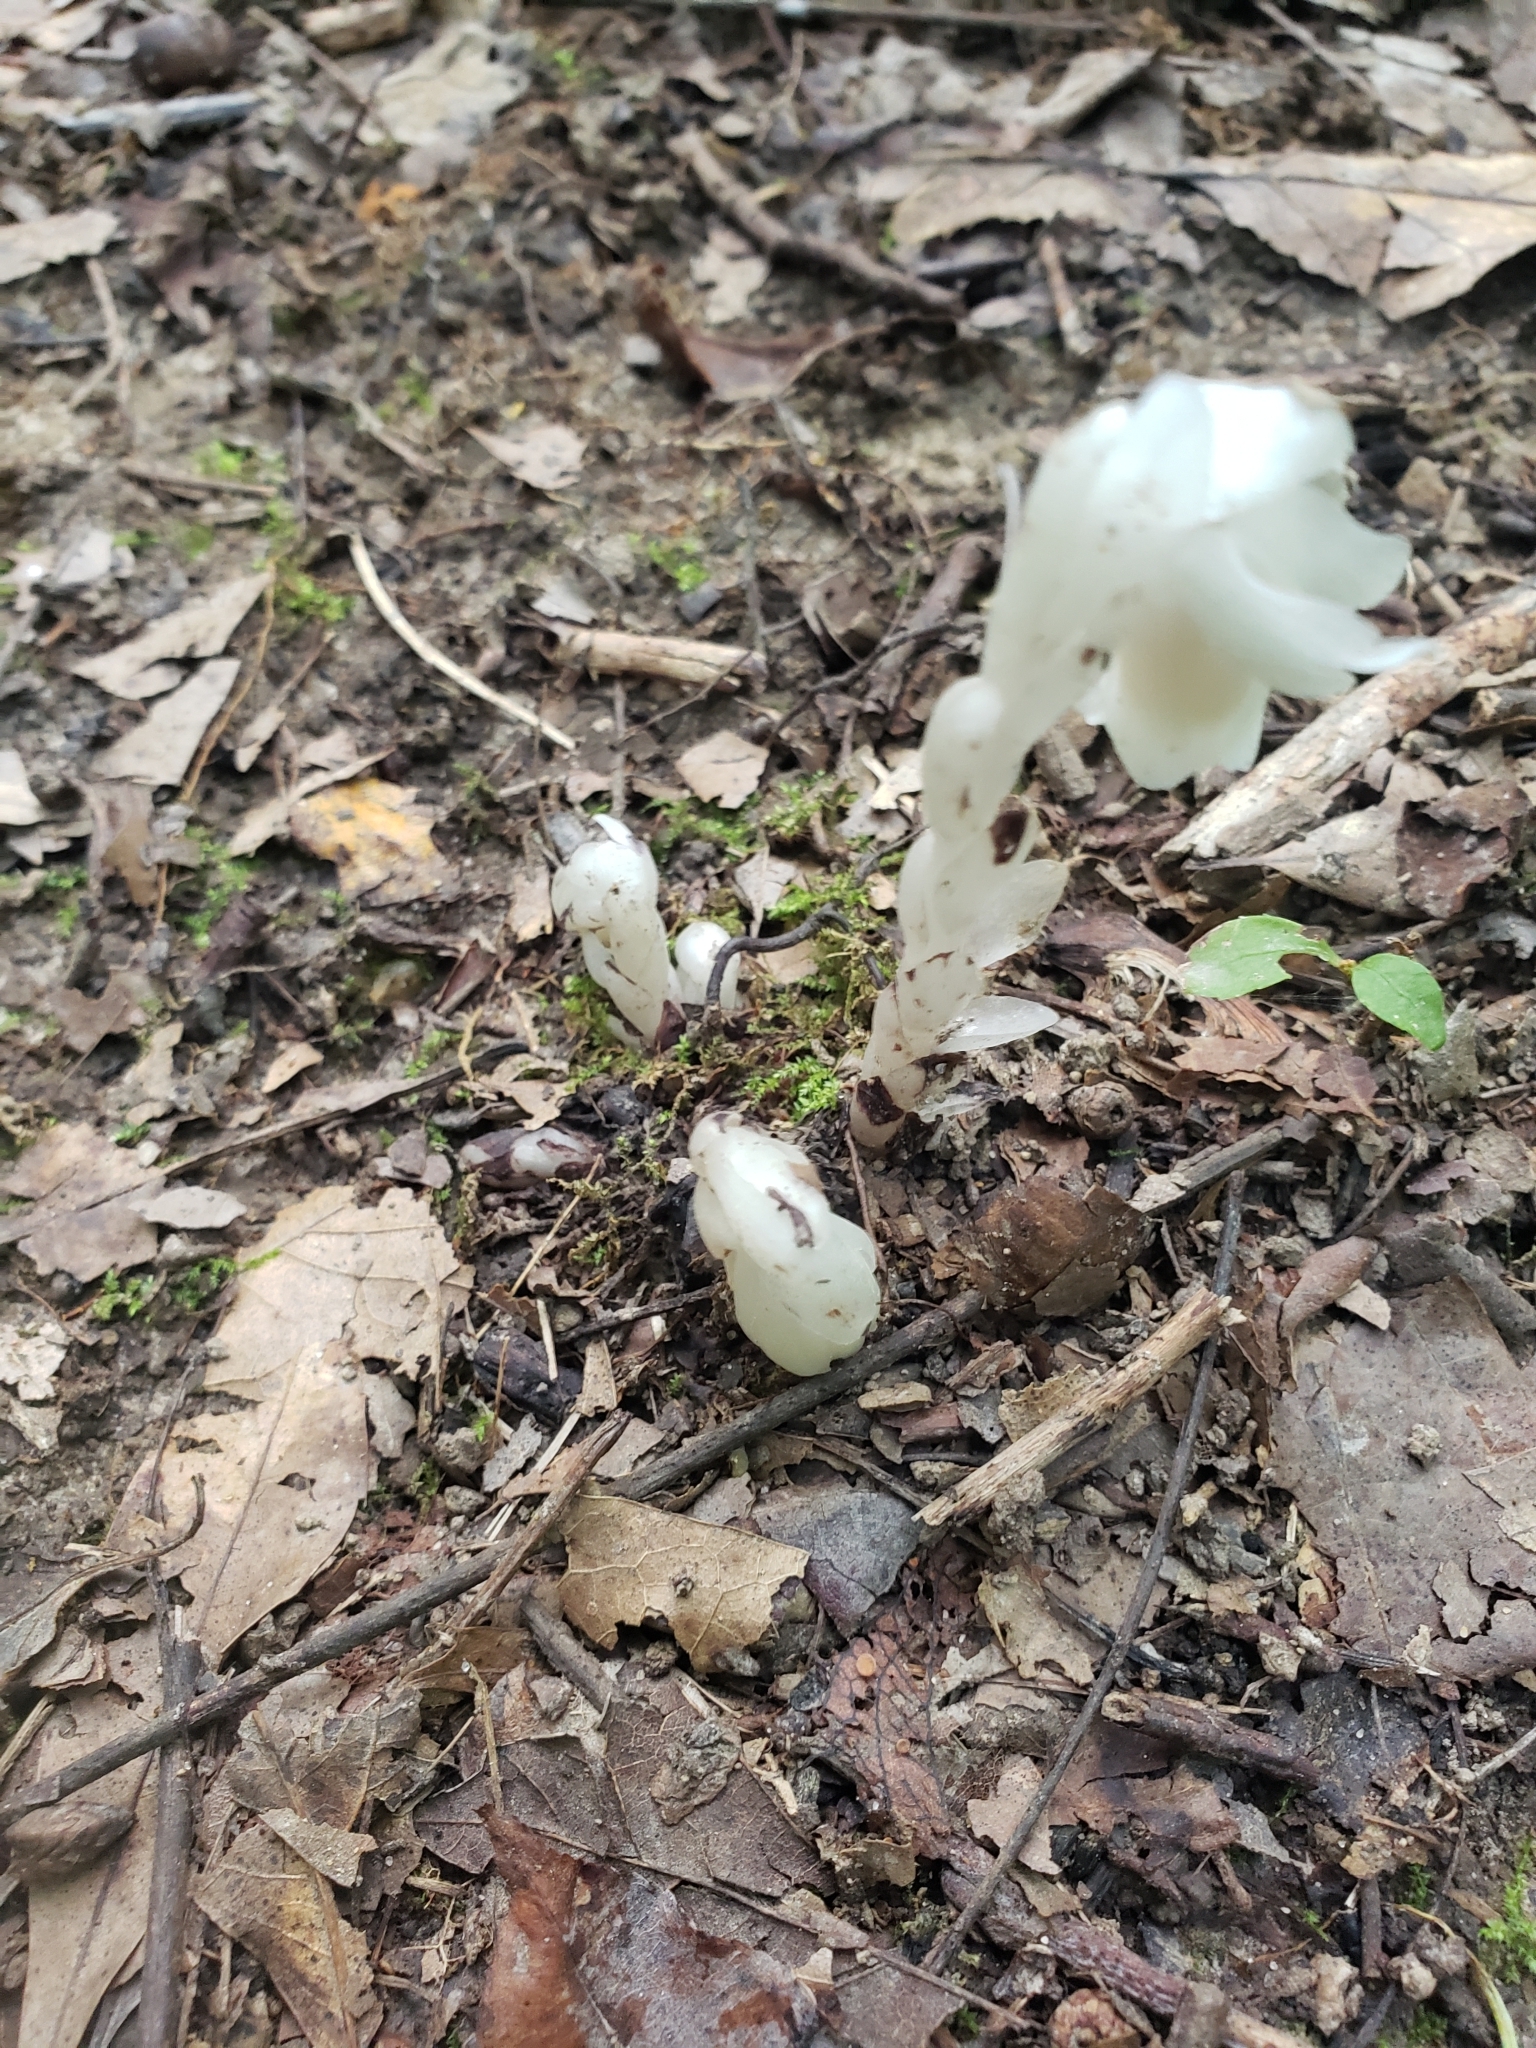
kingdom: Plantae
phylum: Tracheophyta
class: Magnoliopsida
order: Ericales
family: Ericaceae
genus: Monotropa
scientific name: Monotropa uniflora
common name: Convulsion root
